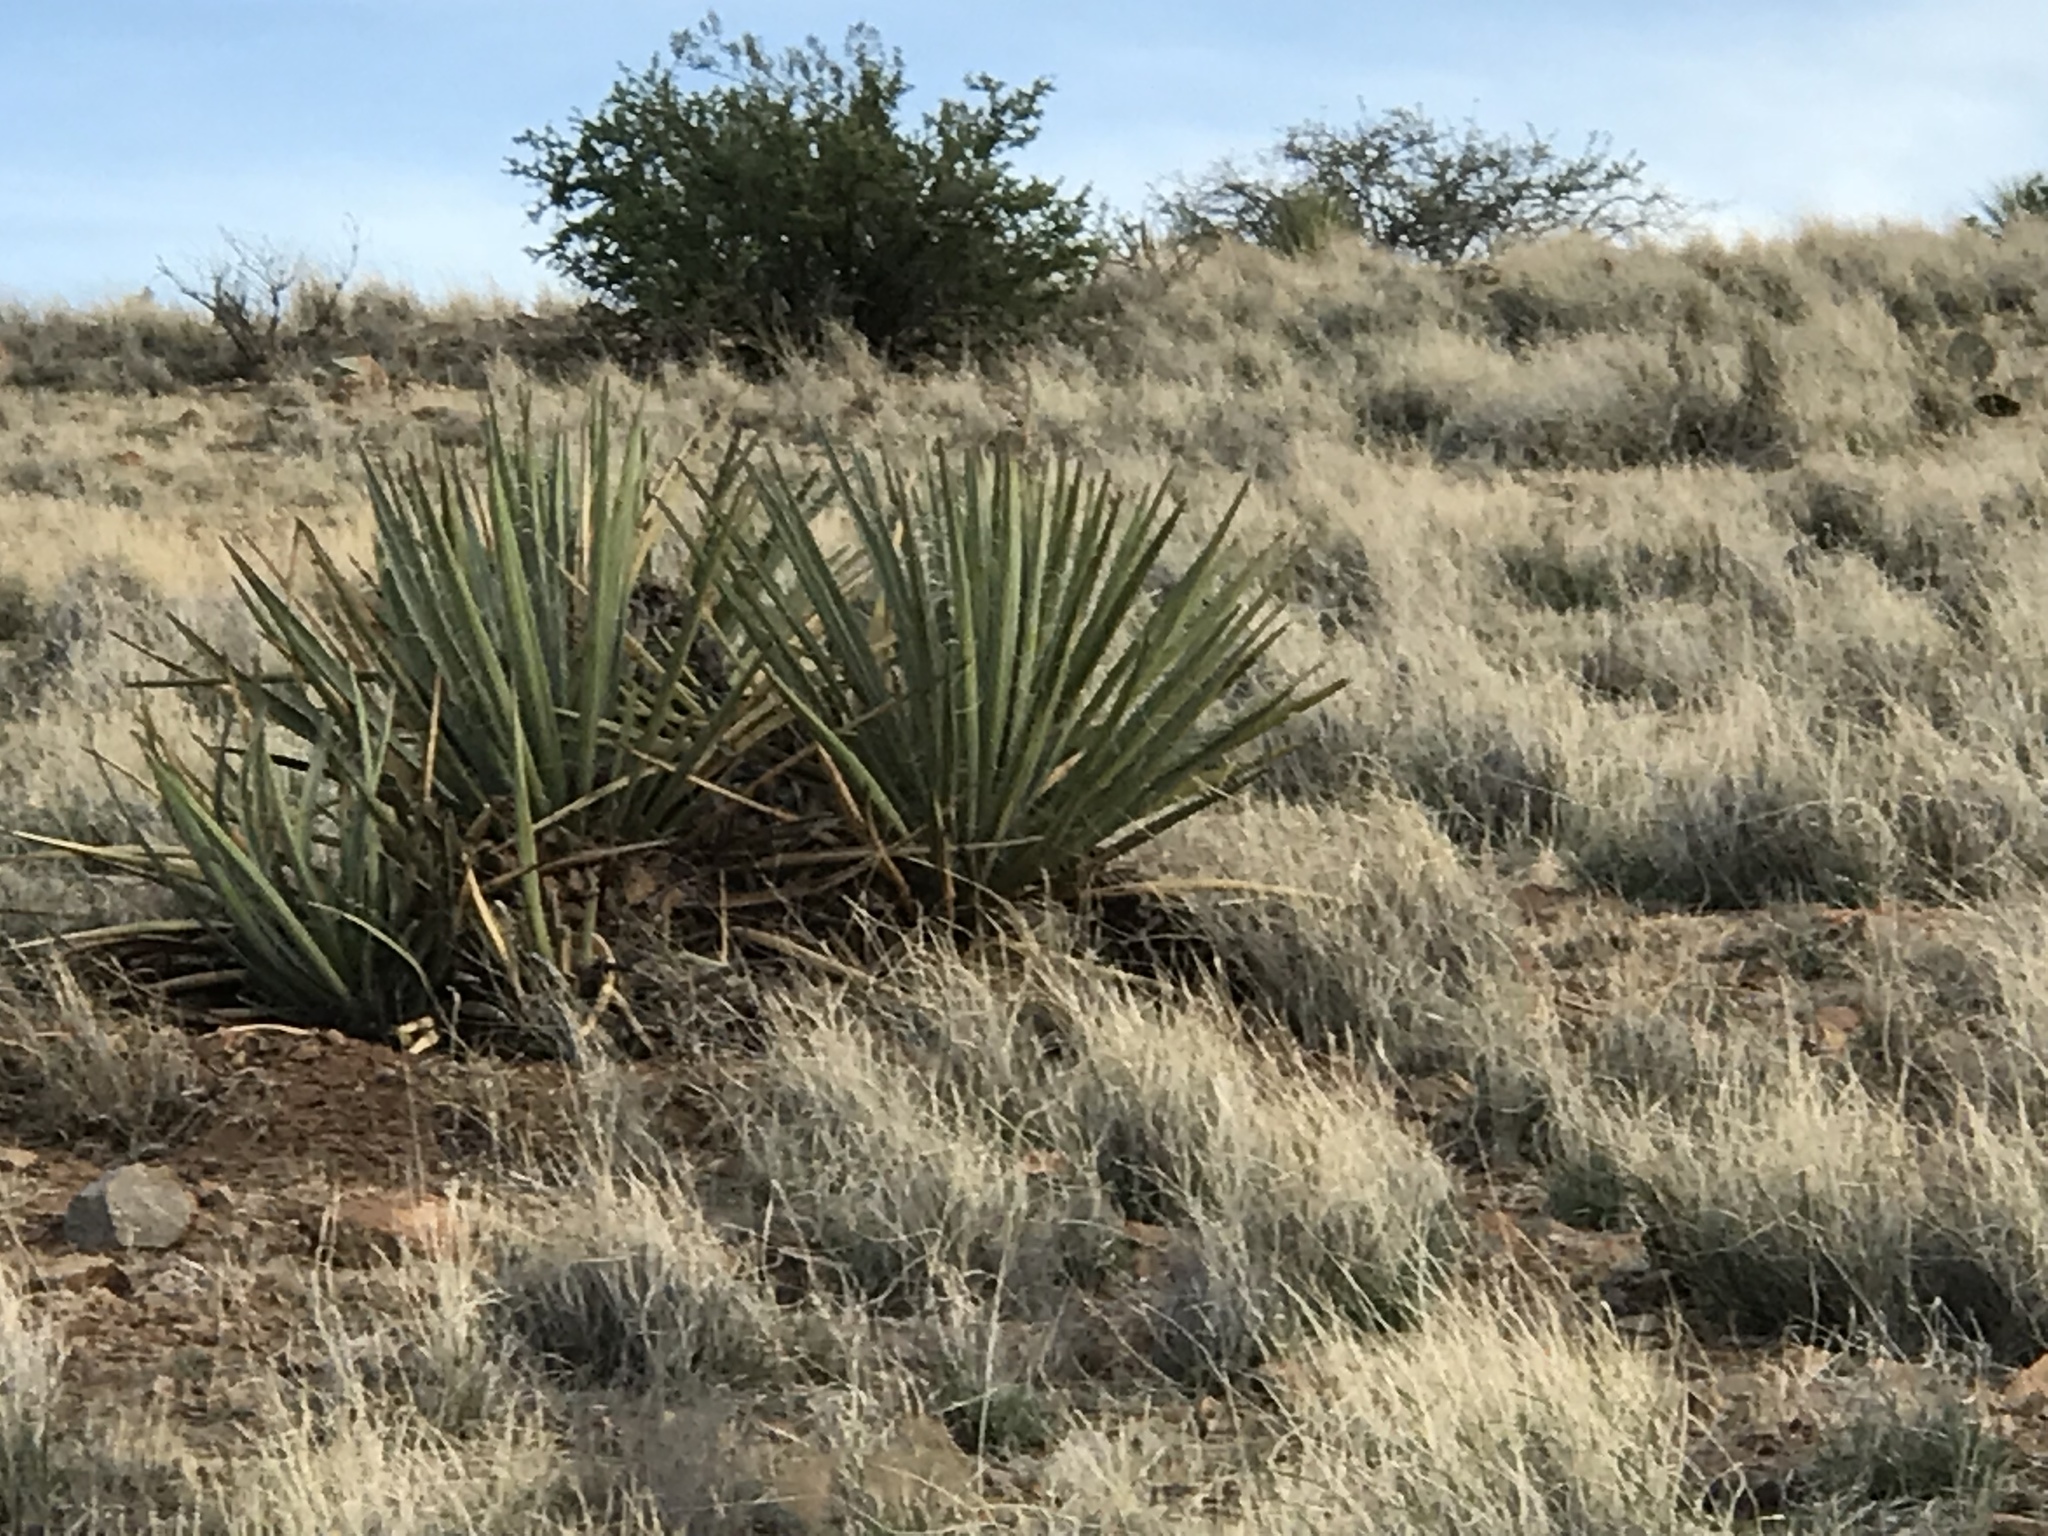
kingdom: Plantae
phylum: Tracheophyta
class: Liliopsida
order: Asparagales
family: Asparagaceae
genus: Yucca
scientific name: Yucca baccata
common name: Banana yucca
